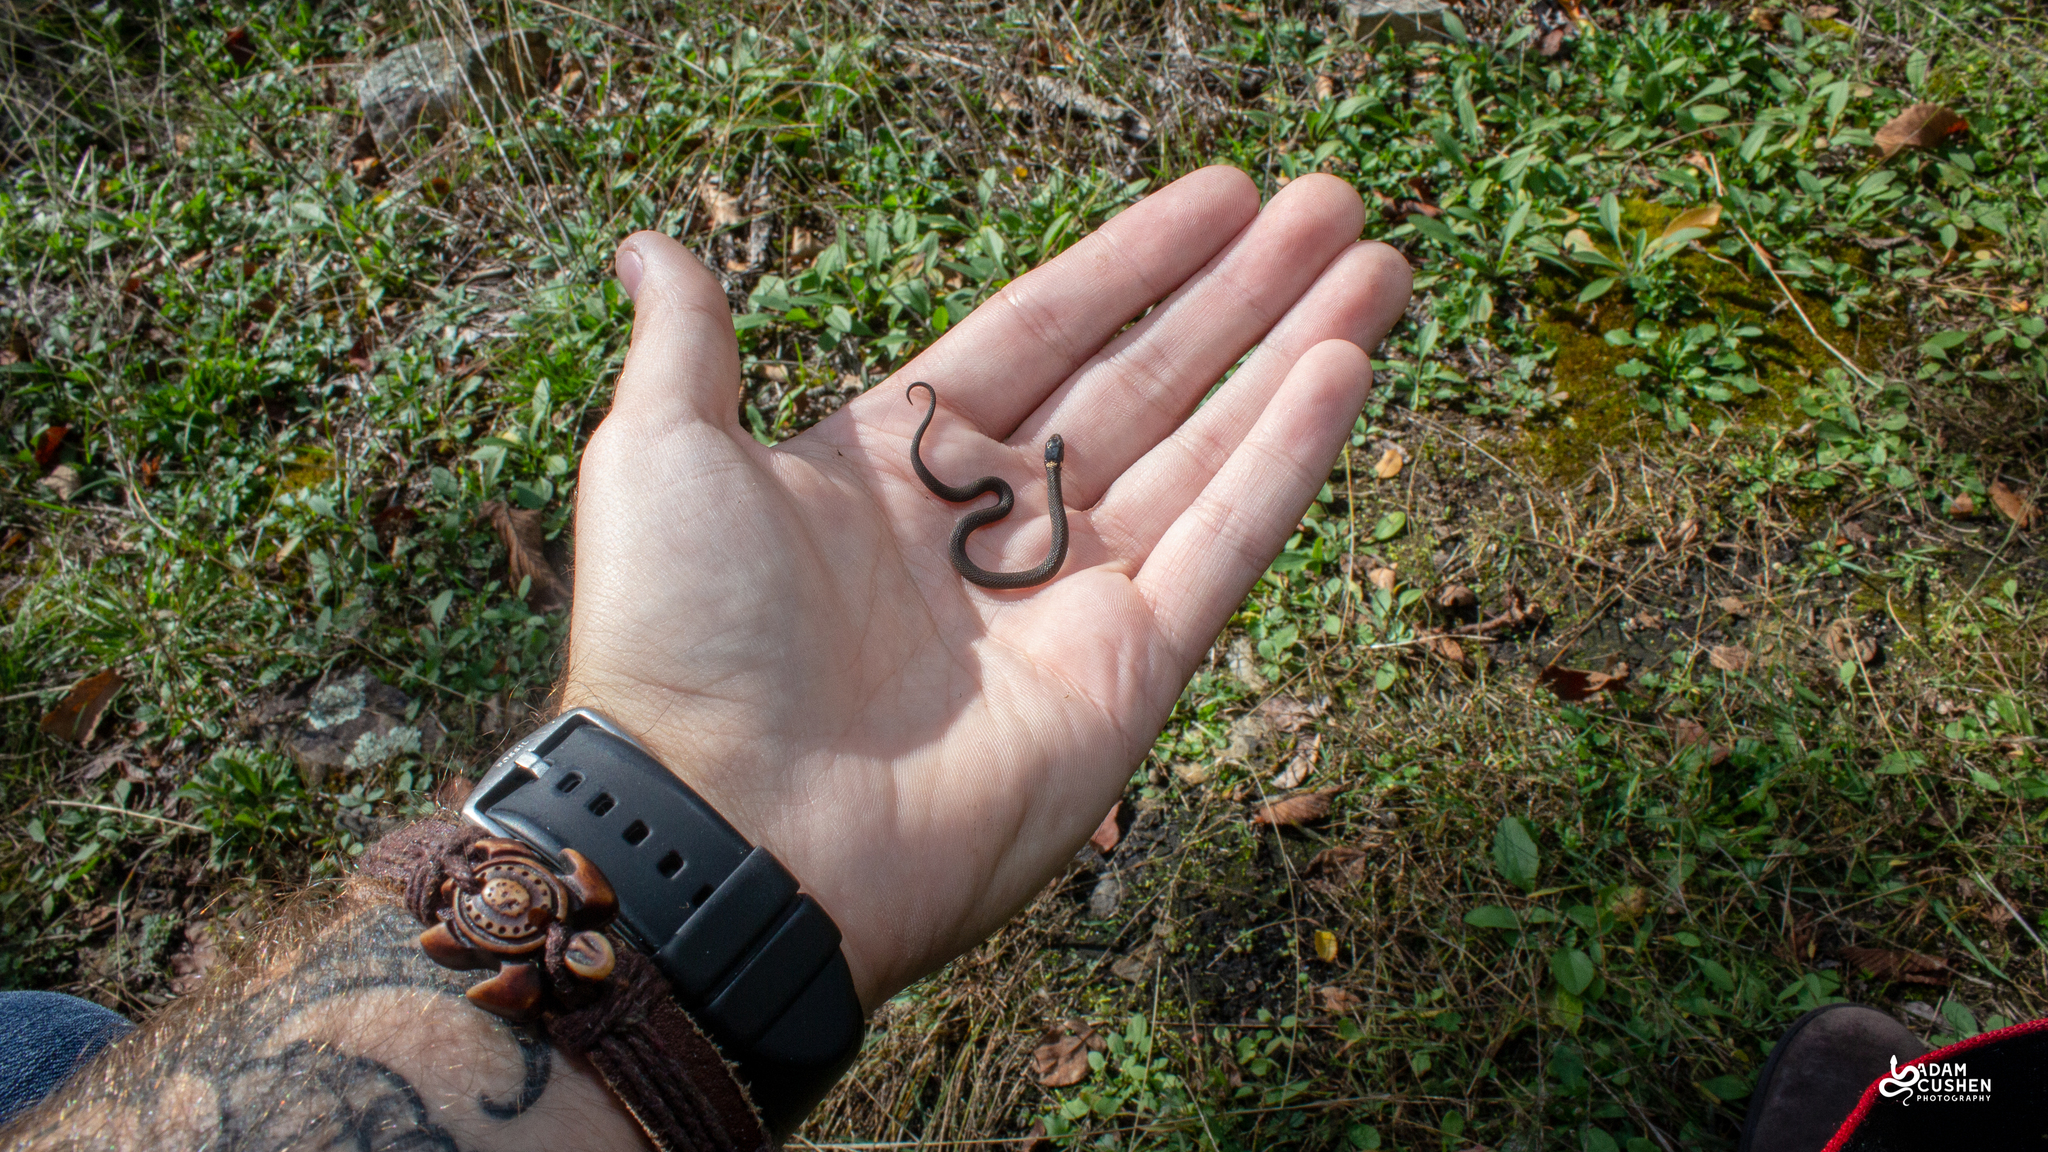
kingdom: Animalia
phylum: Chordata
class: Squamata
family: Colubridae
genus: Storeria
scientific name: Storeria occipitomaculata
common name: Redbelly snake
